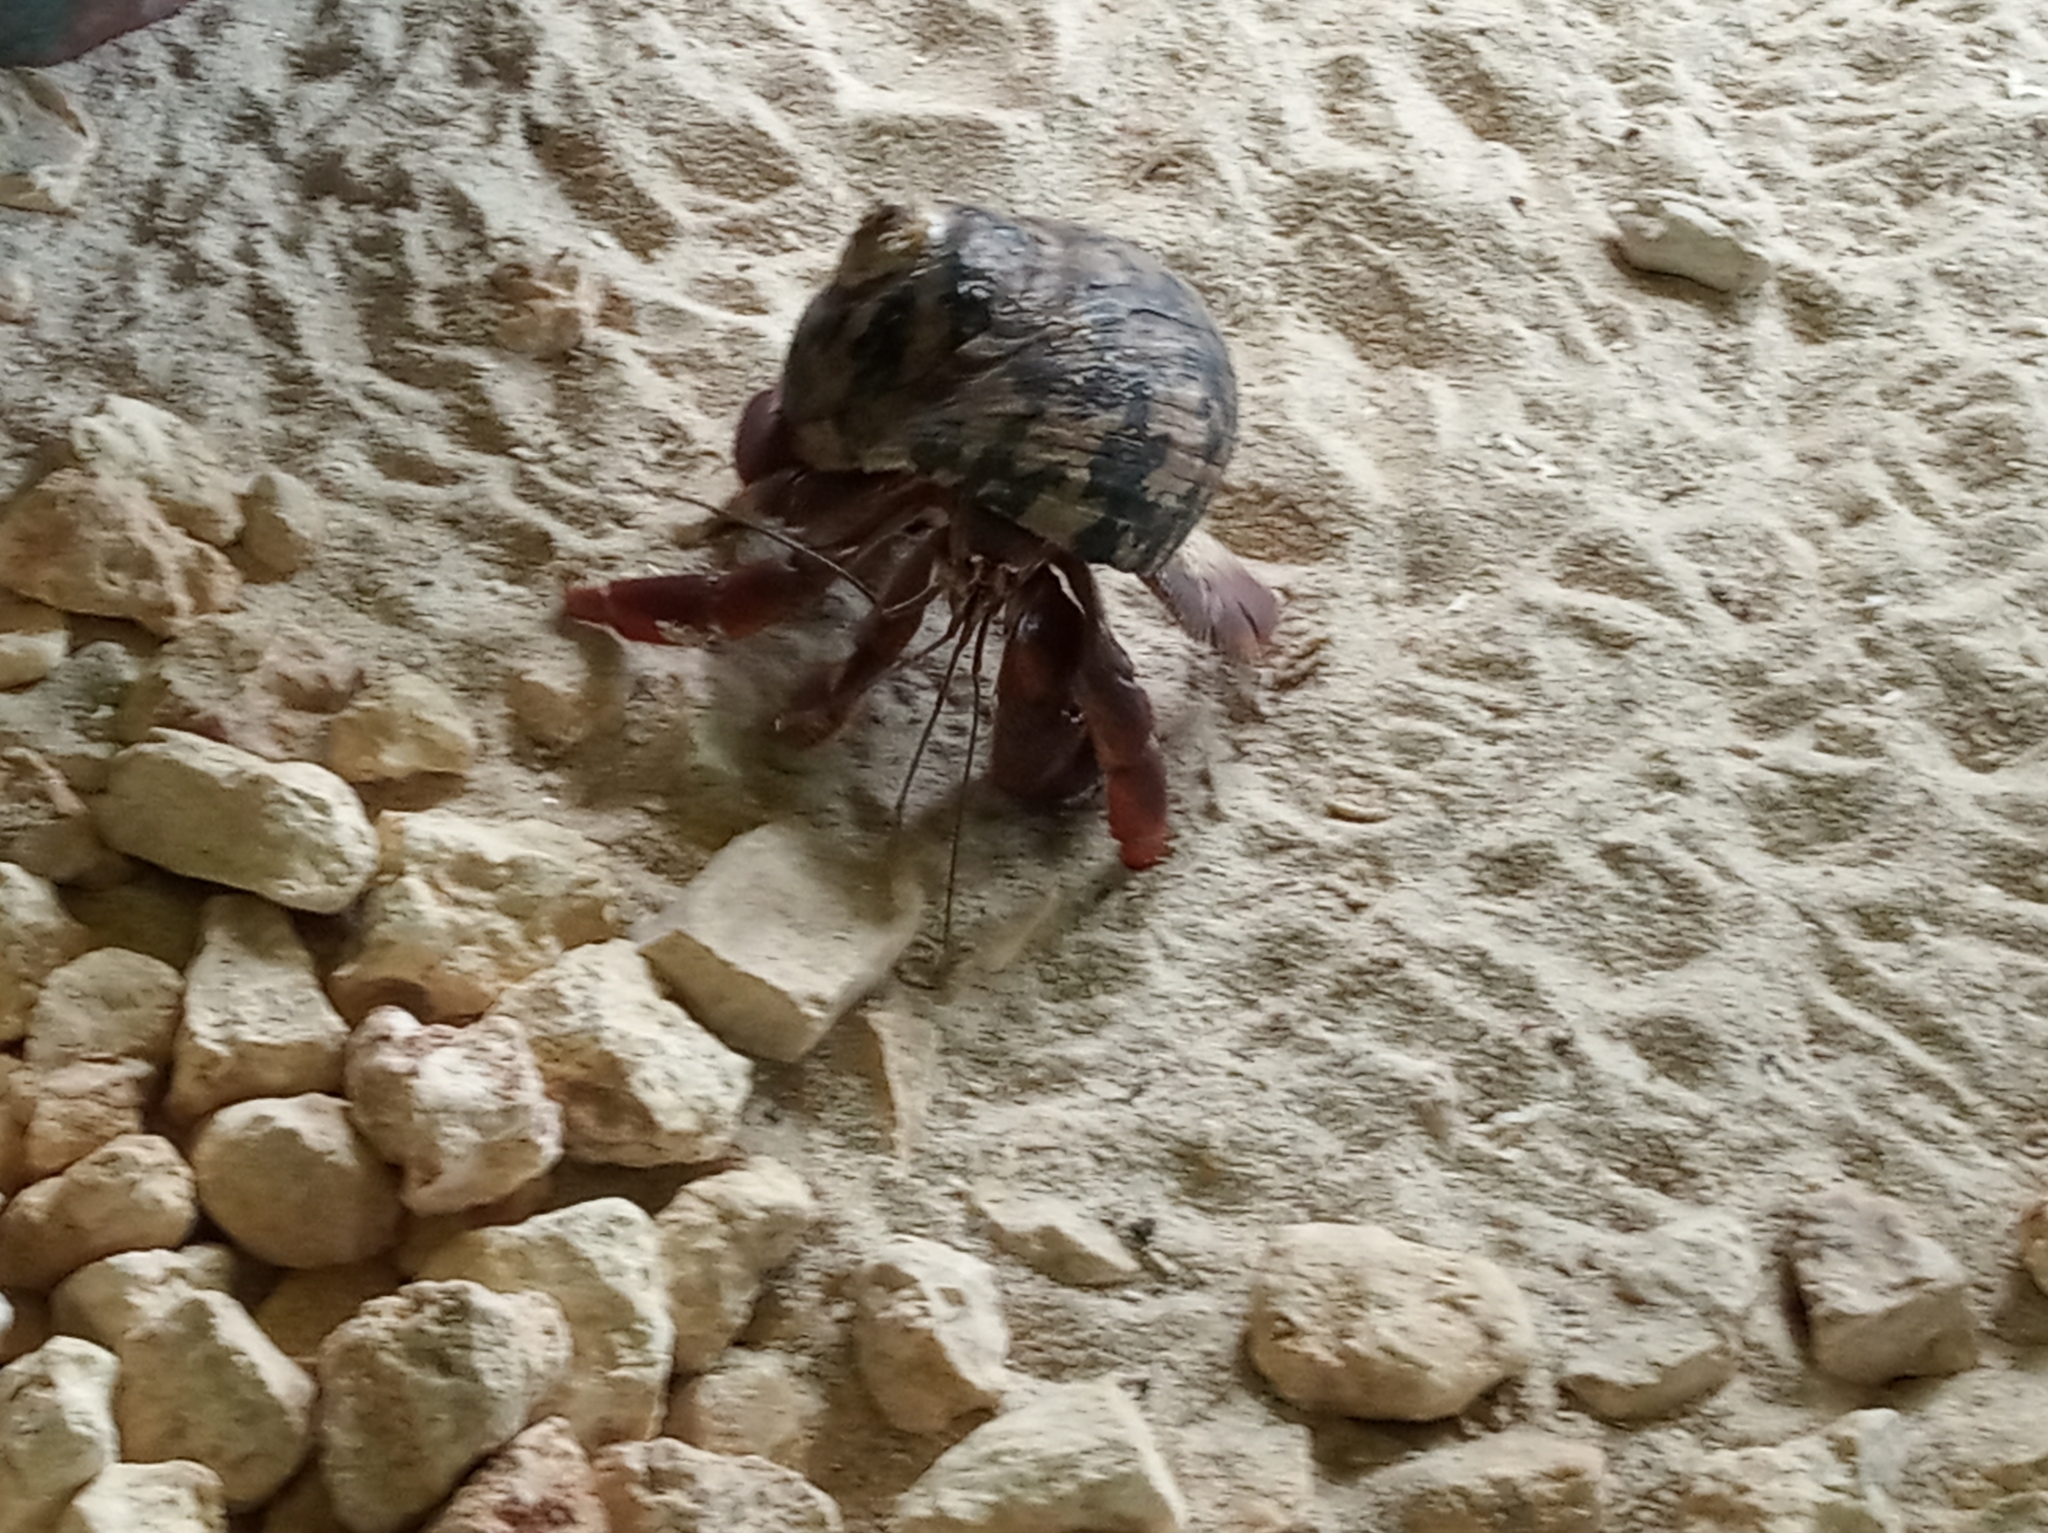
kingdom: Animalia
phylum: Arthropoda
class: Malacostraca
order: Decapoda
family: Coenobitidae
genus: Coenobita
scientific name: Coenobita clypeatus
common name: Caribbean hermit crab
